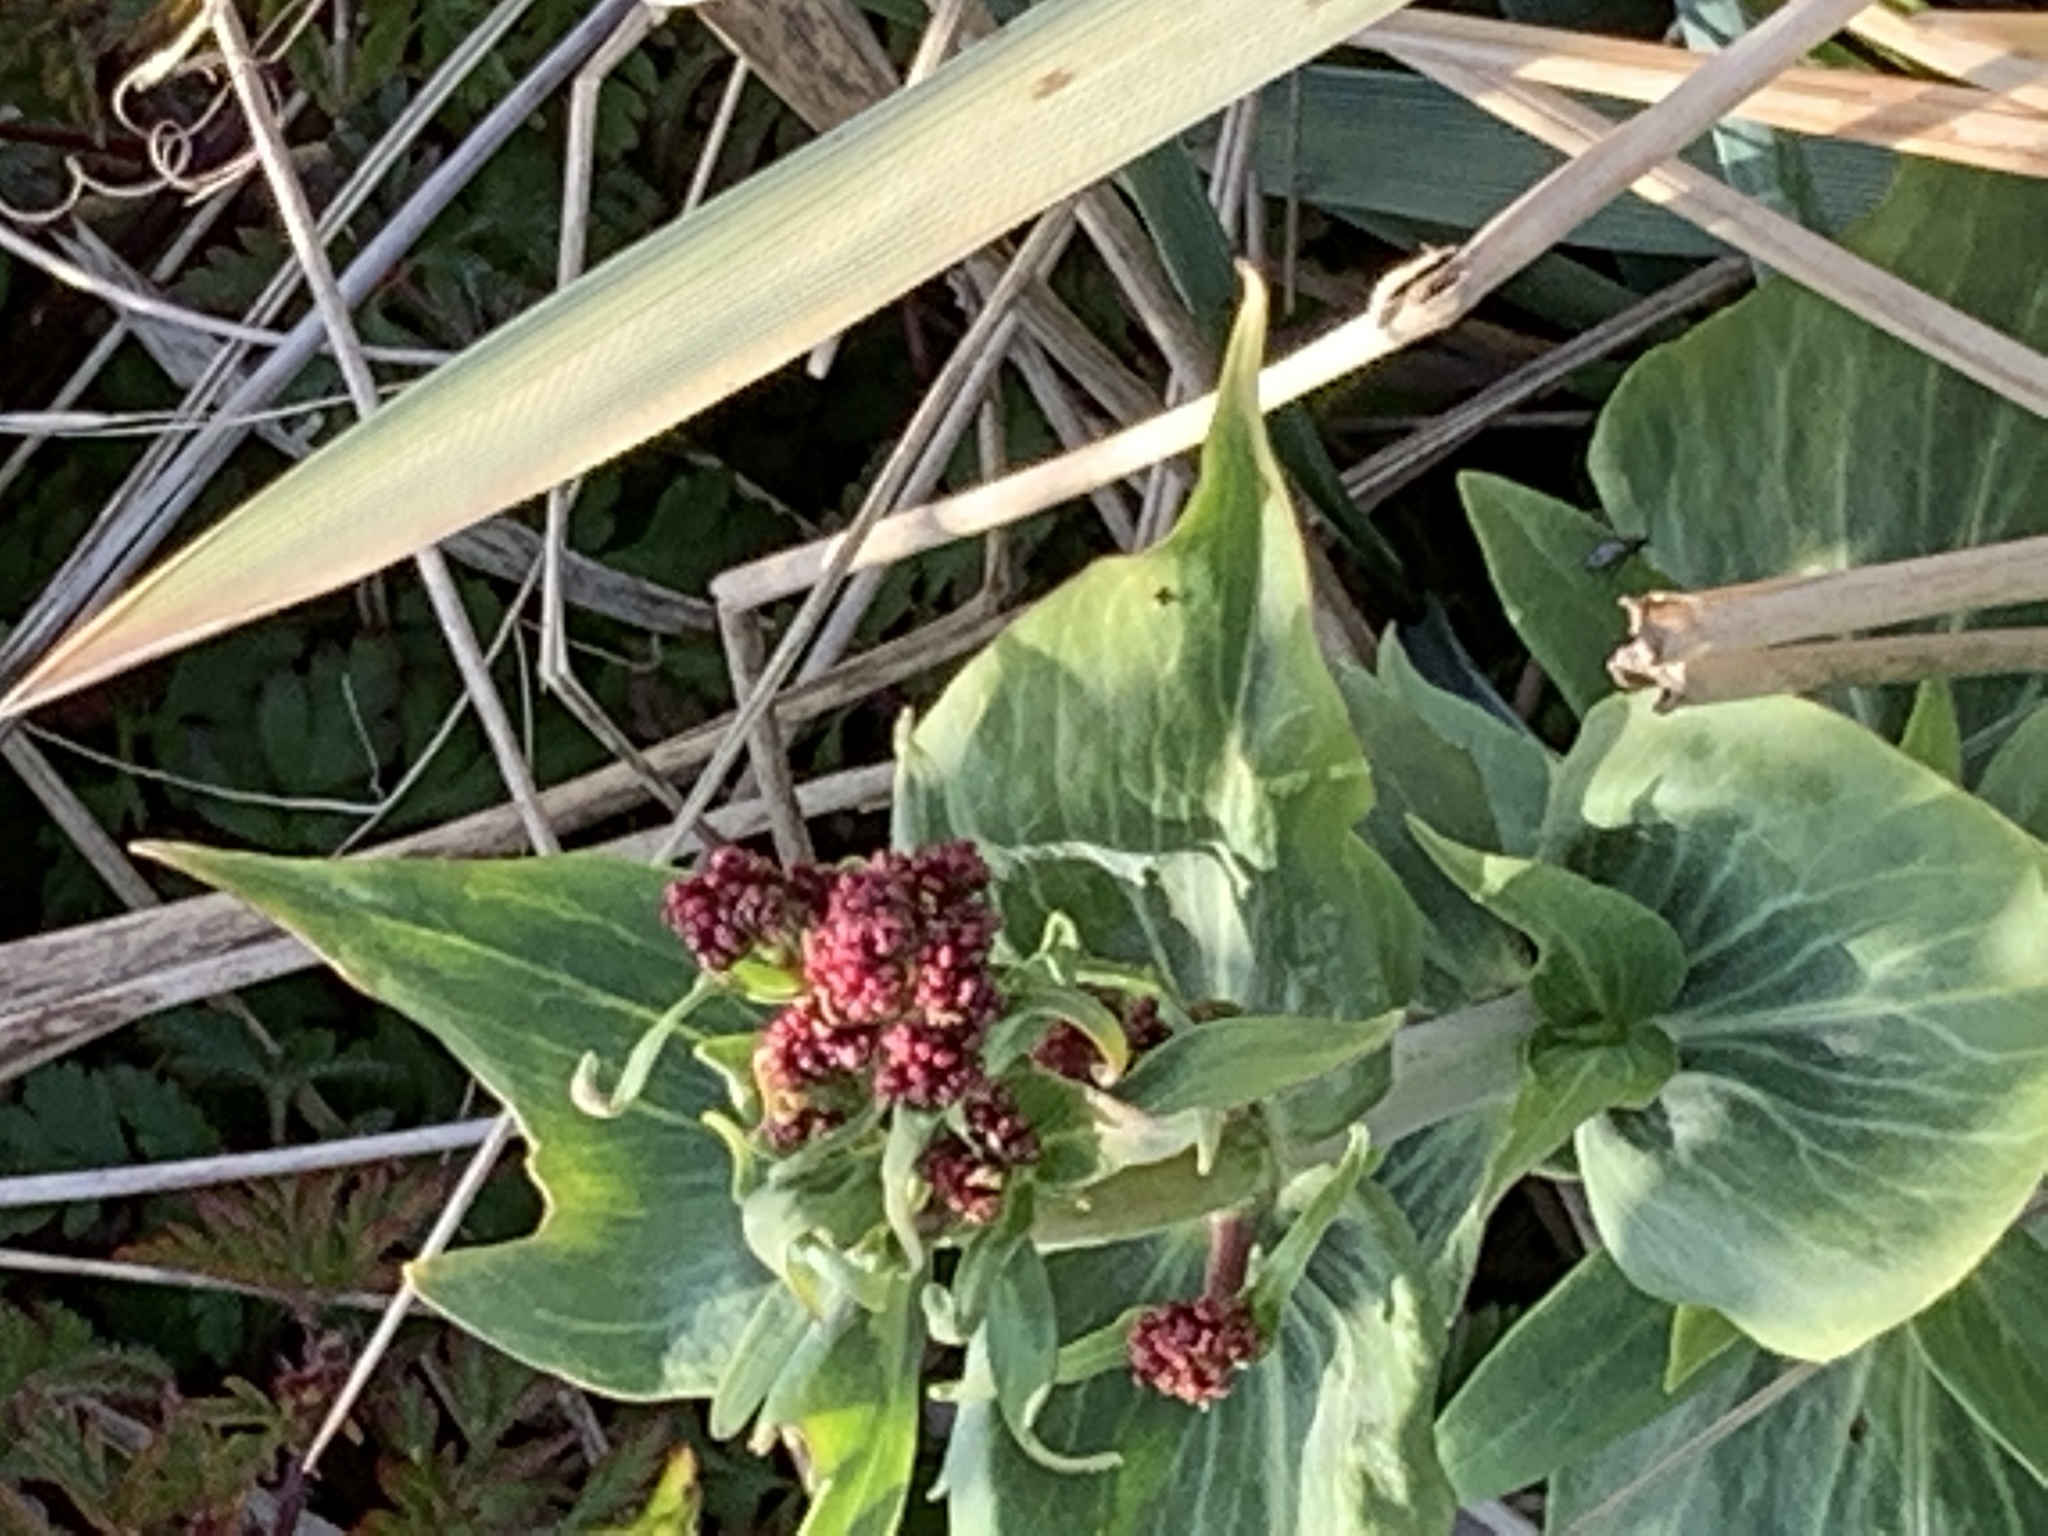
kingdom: Plantae
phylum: Tracheophyta
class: Magnoliopsida
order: Dipsacales
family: Caprifoliaceae
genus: Centranthus
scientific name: Centranthus ruber
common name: Red valerian
